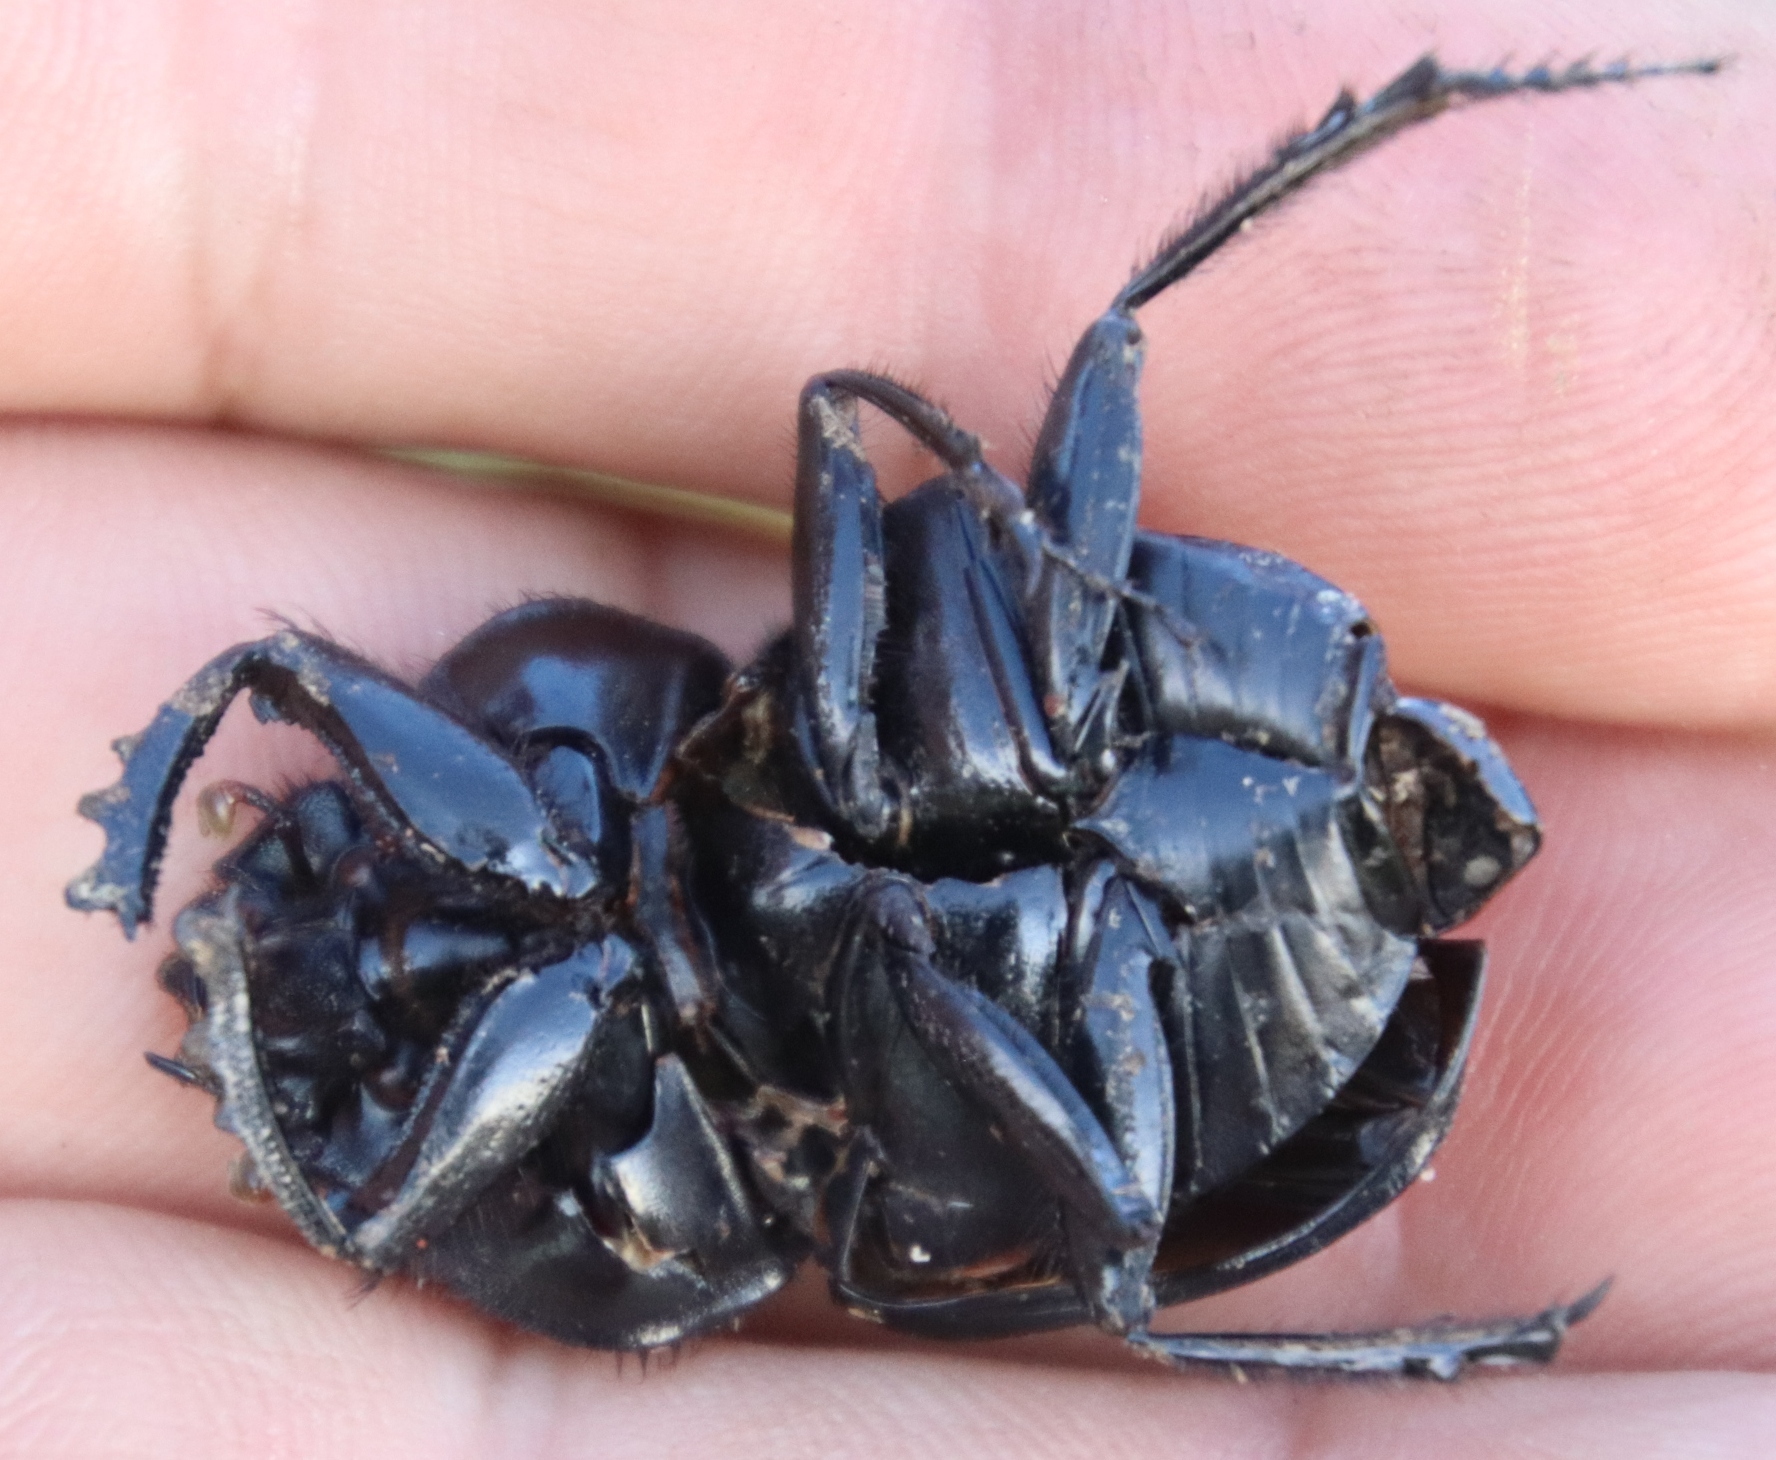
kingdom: Animalia
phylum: Arthropoda
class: Insecta
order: Coleoptera
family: Scarabaeidae
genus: Scarabaeus
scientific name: Scarabaeus caffer
